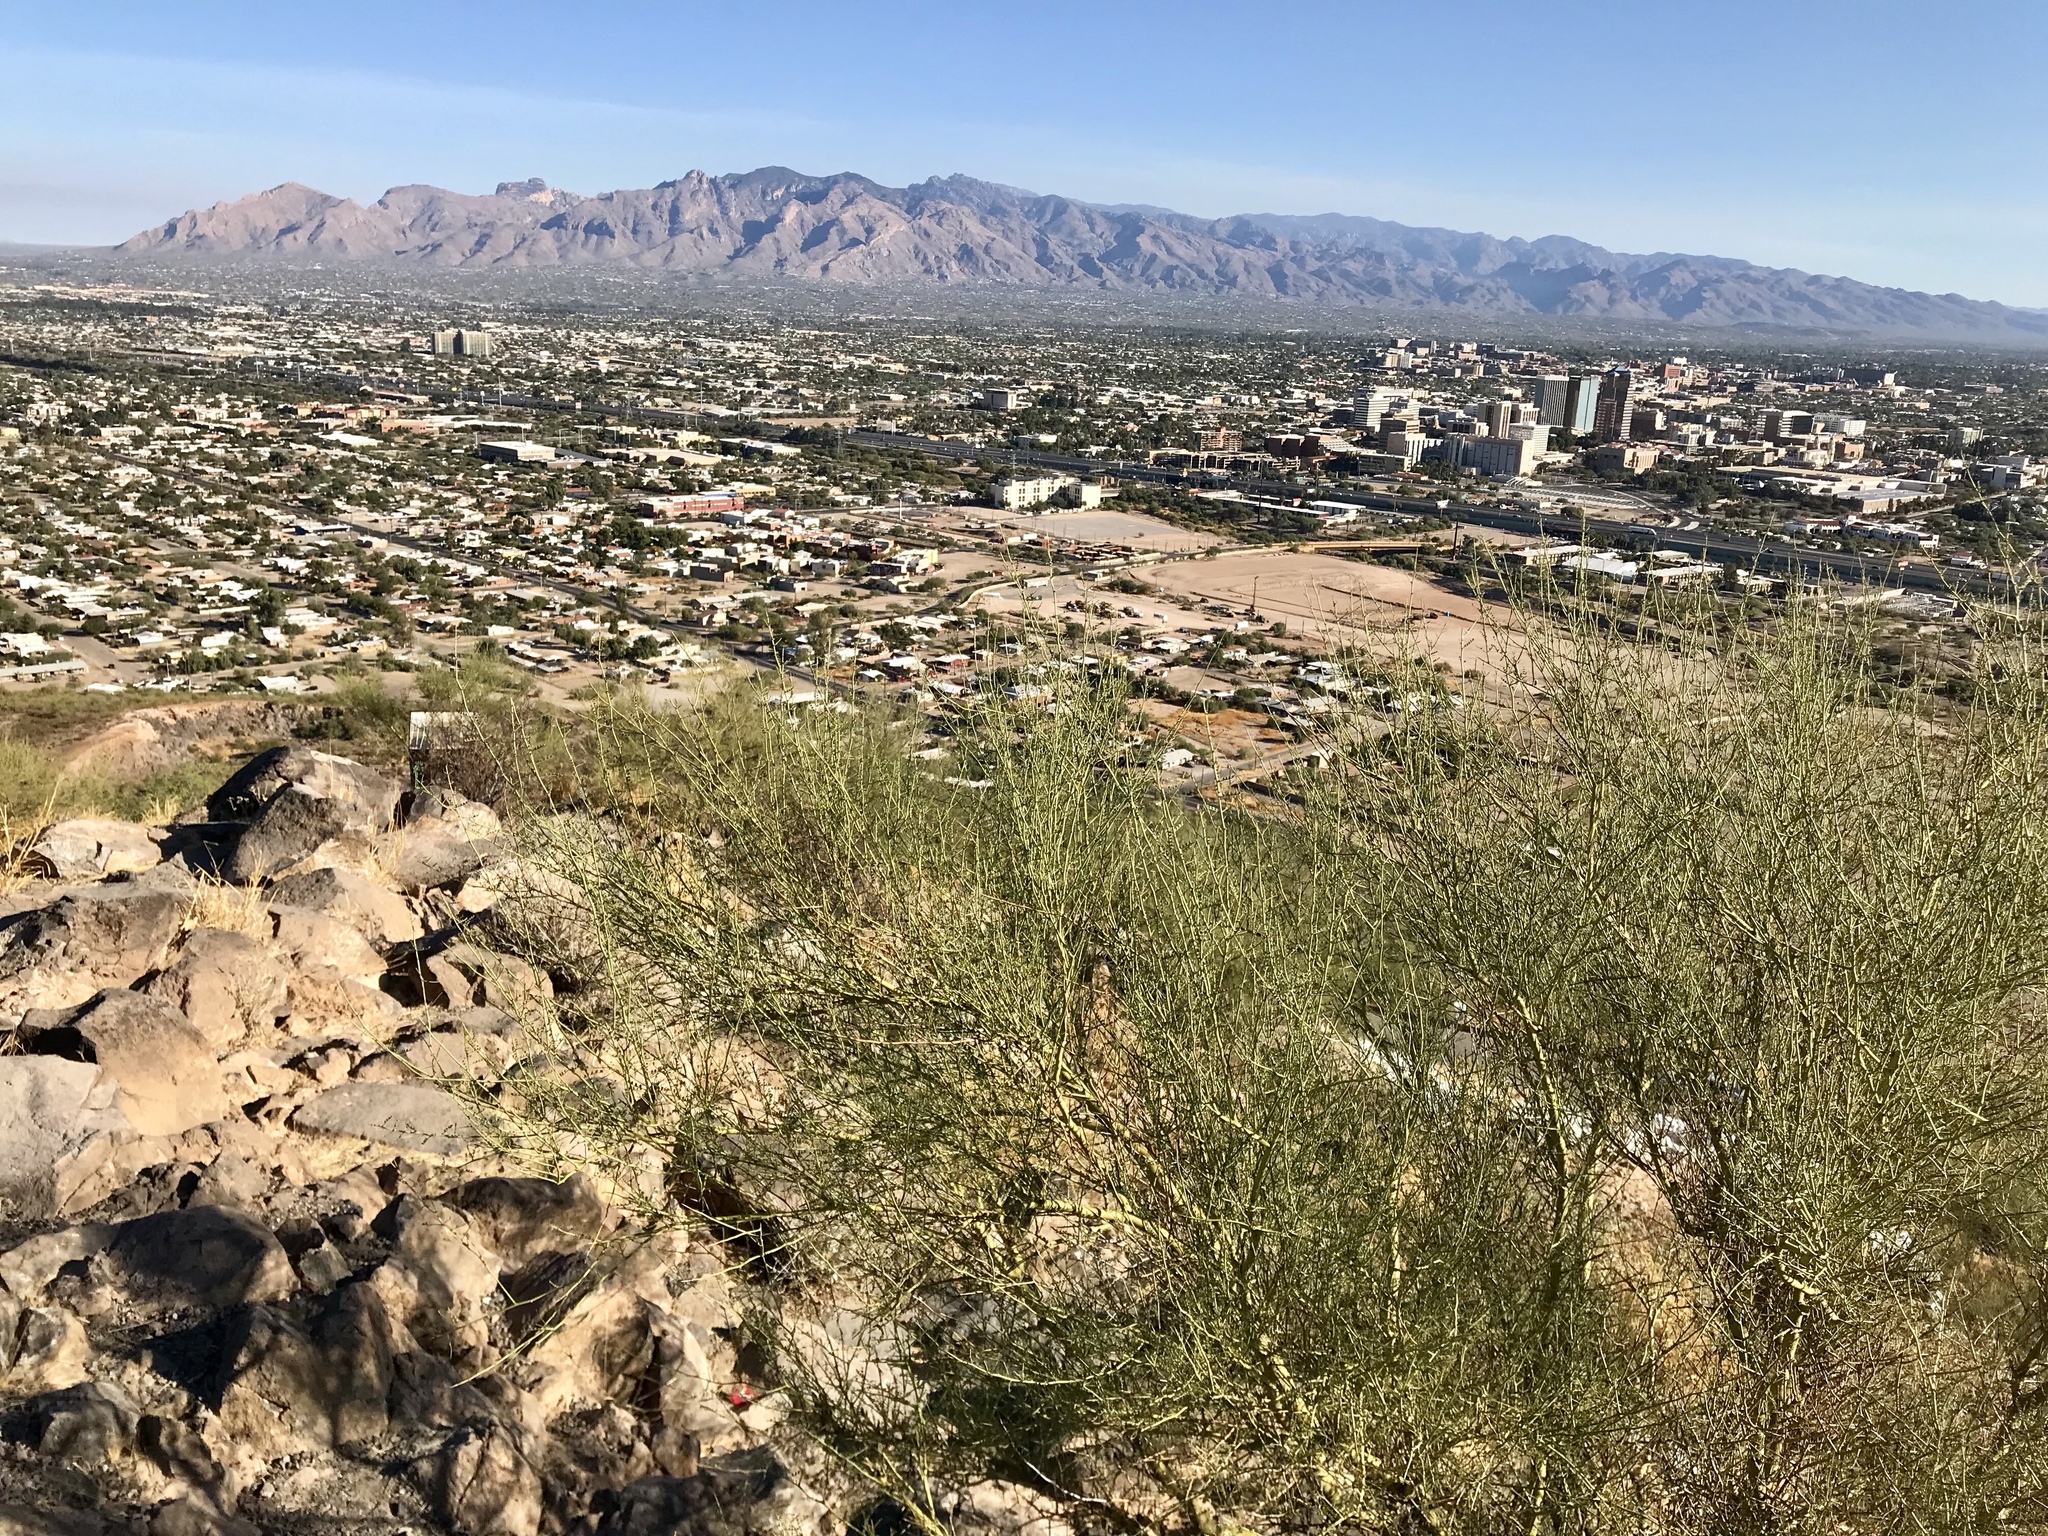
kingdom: Plantae
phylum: Tracheophyta
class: Magnoliopsida
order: Fabales
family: Fabaceae
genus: Parkinsonia
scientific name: Parkinsonia florida
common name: Blue paloverde
